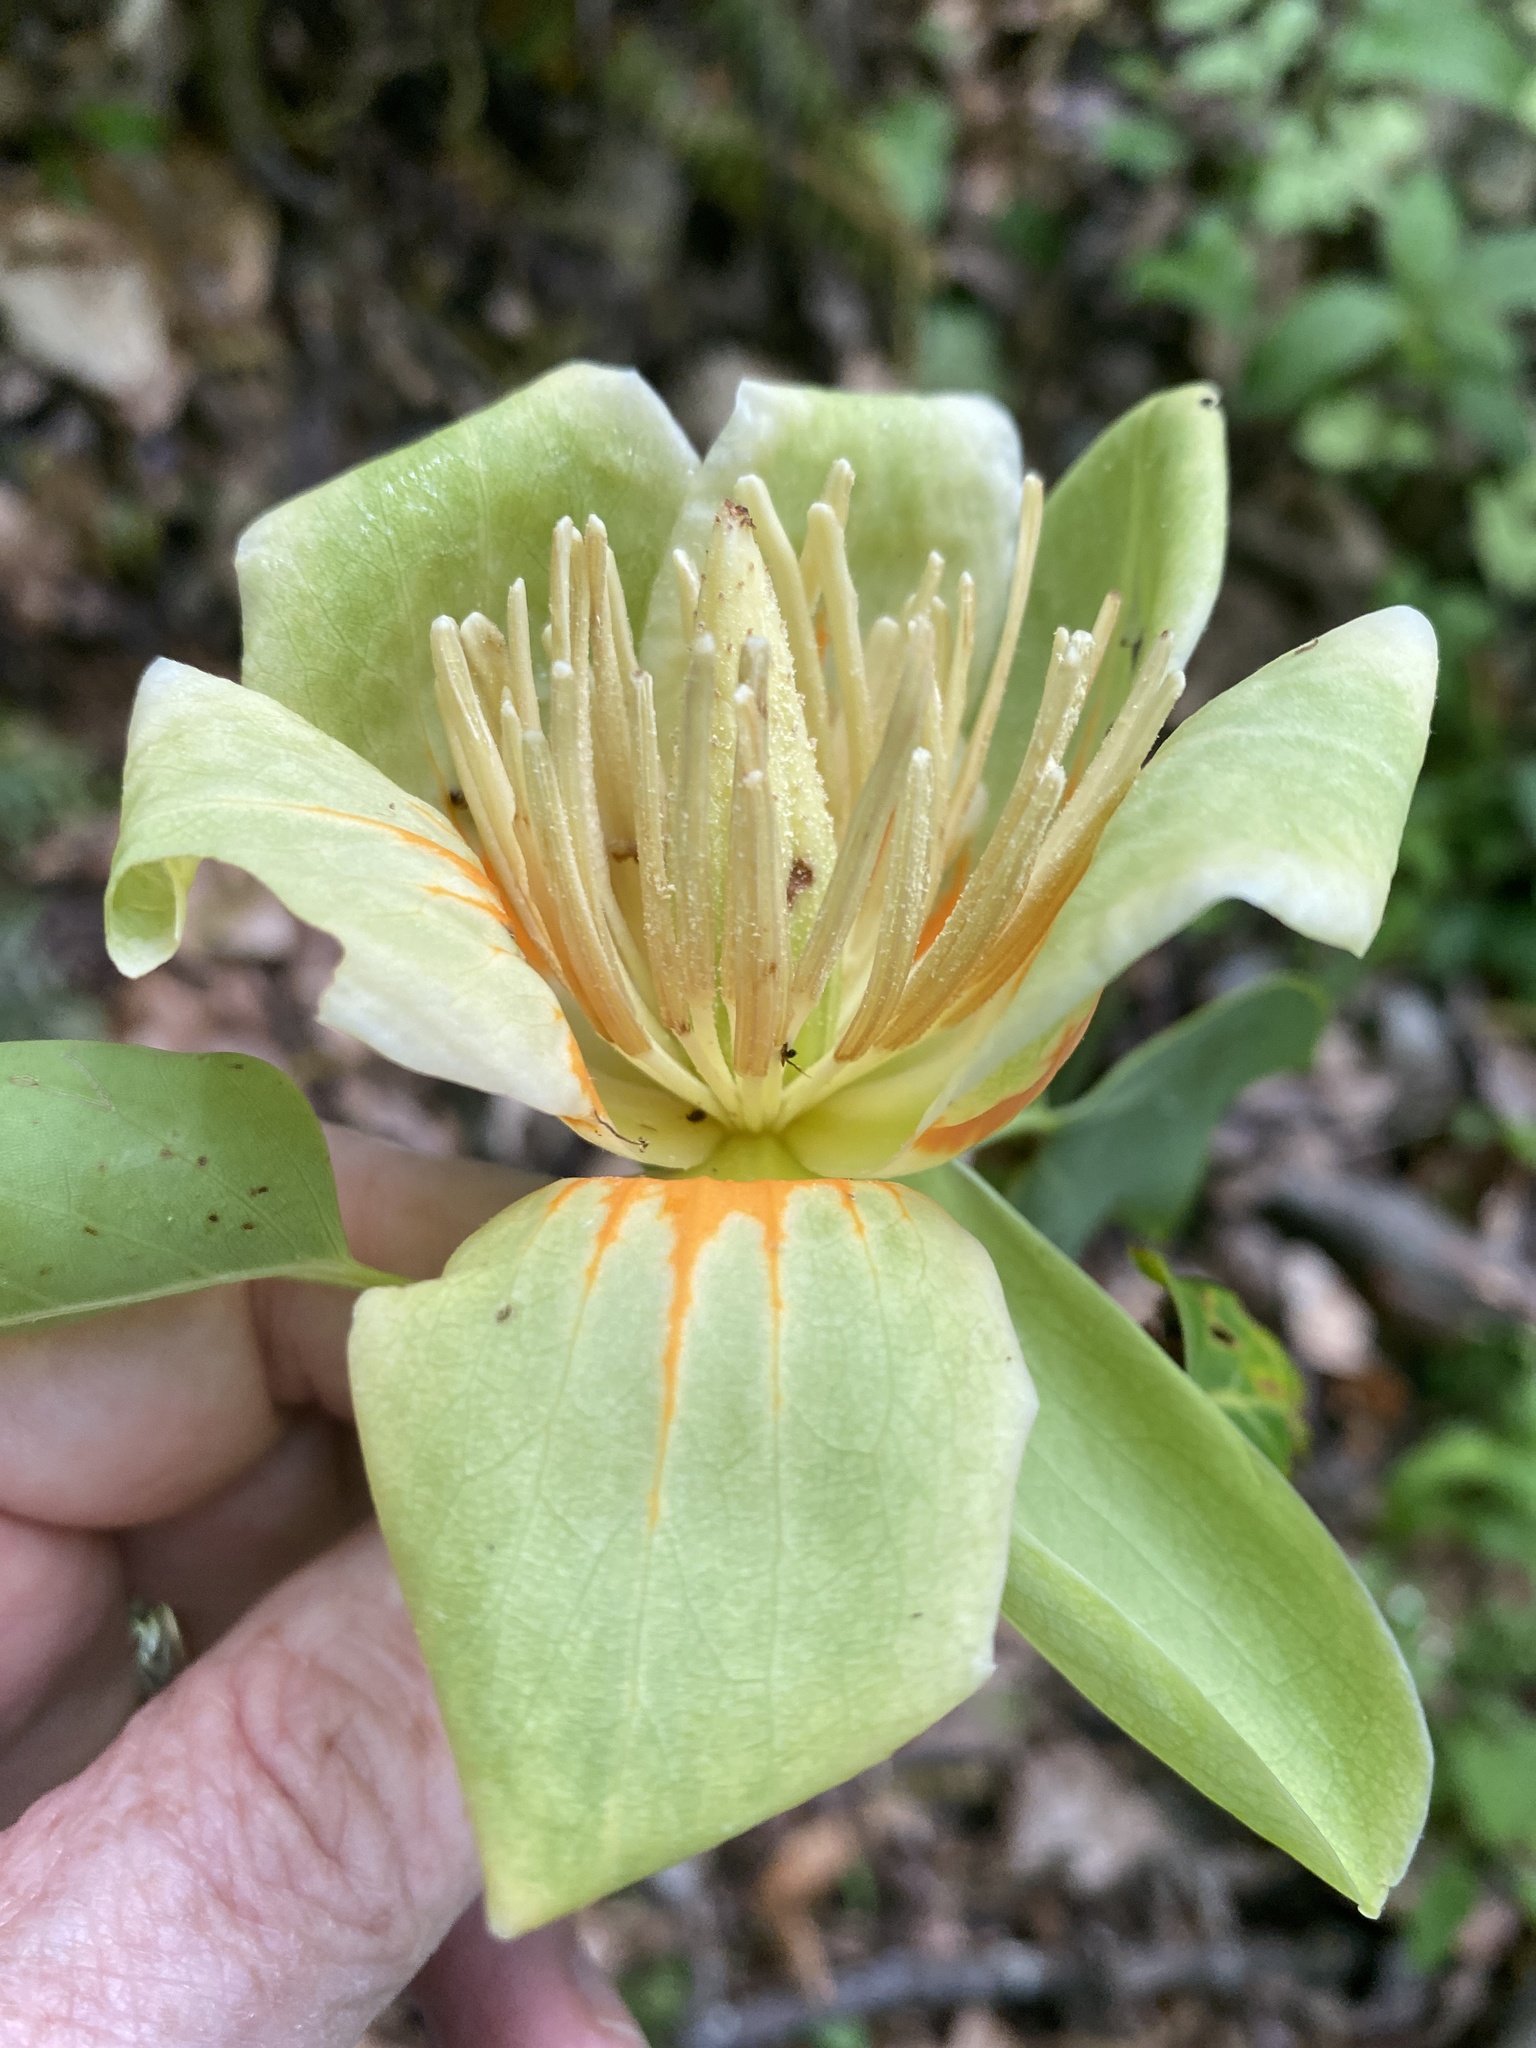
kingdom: Plantae
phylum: Tracheophyta
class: Magnoliopsida
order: Magnoliales
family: Magnoliaceae
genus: Liriodendron
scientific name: Liriodendron tulipifera
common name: Tulip tree
